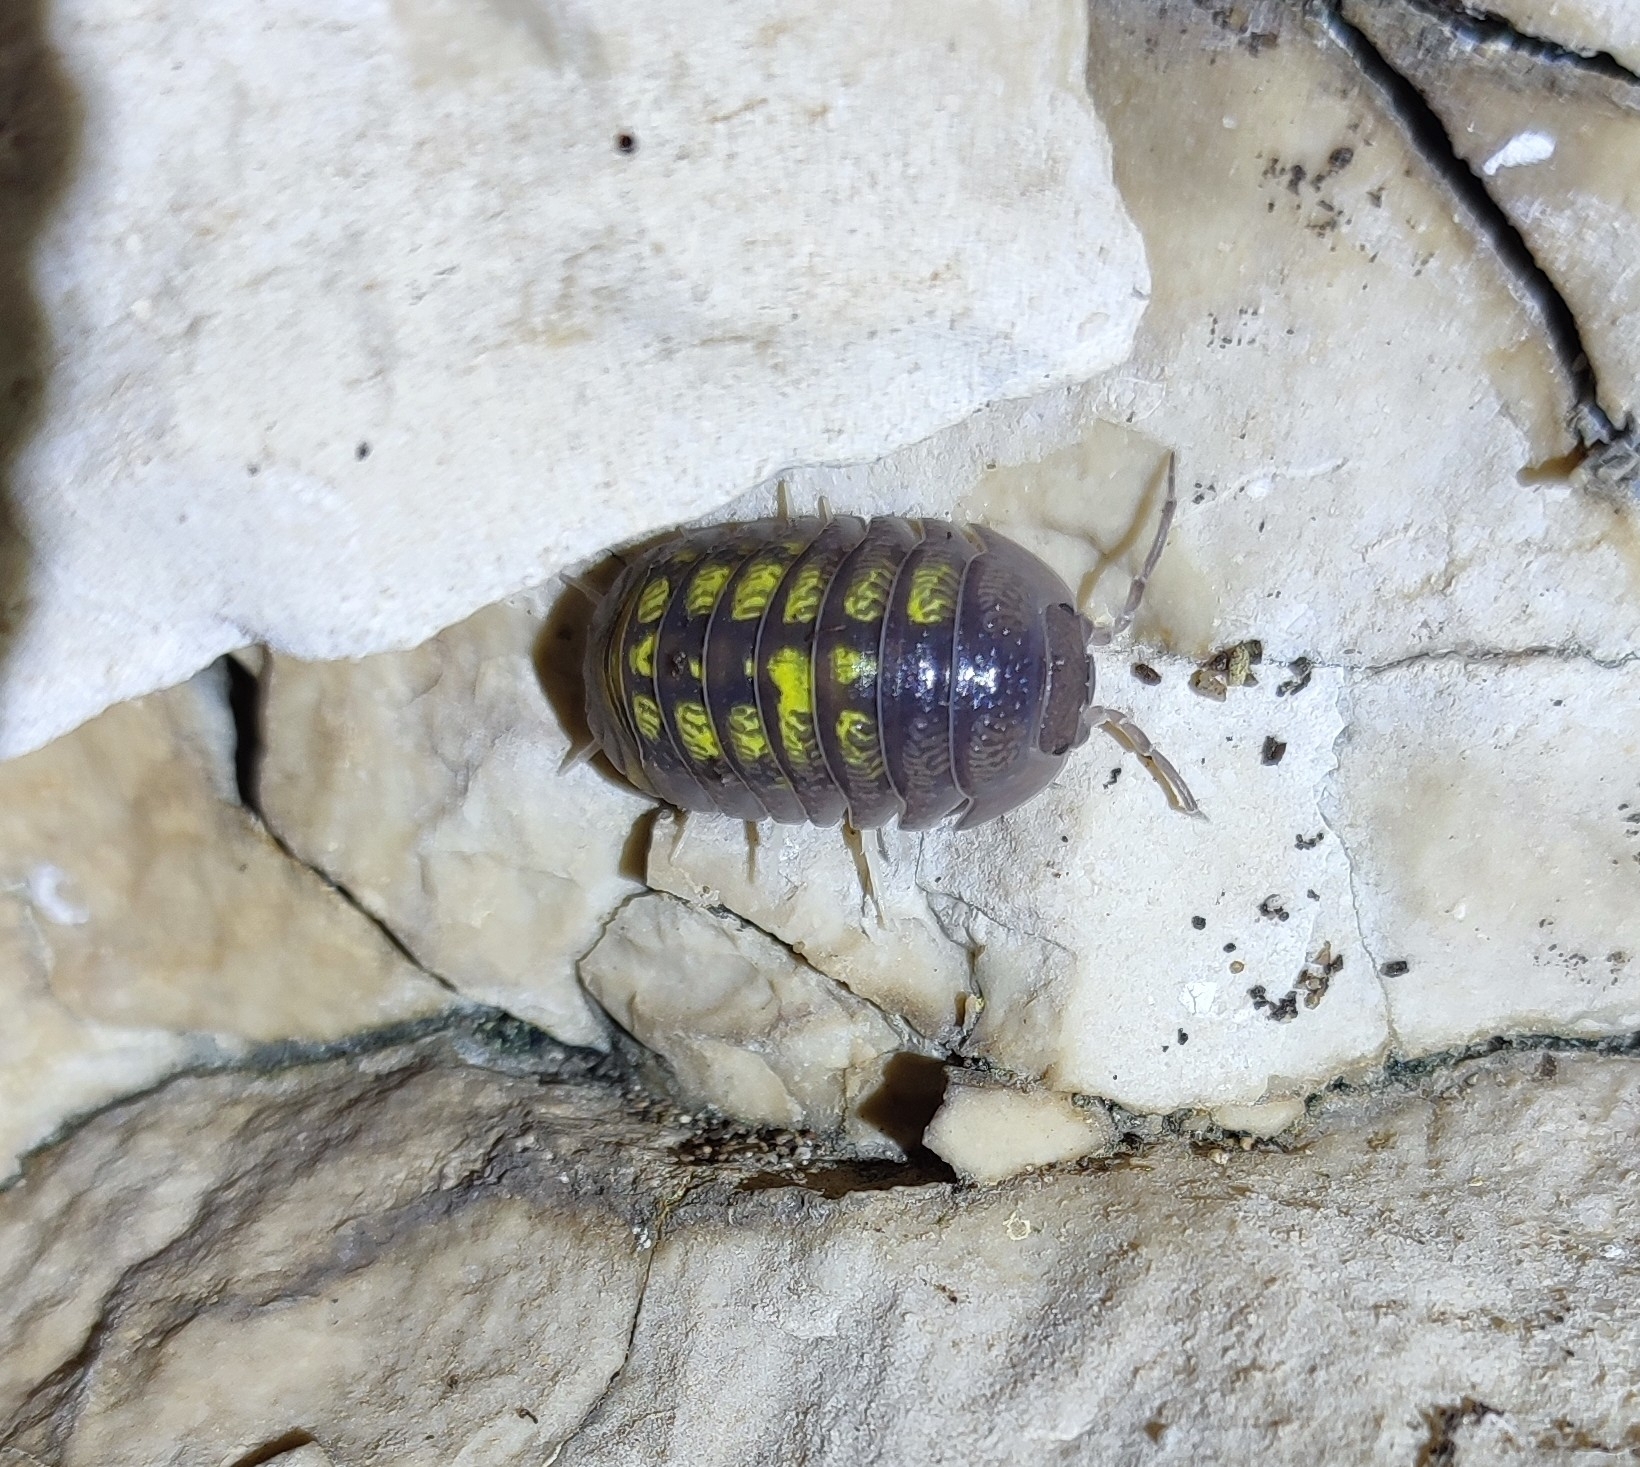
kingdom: Animalia
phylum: Arthropoda
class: Malacostraca
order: Isopoda
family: Armadillidiidae
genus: Armadillidium
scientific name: Armadillidium granulatum
